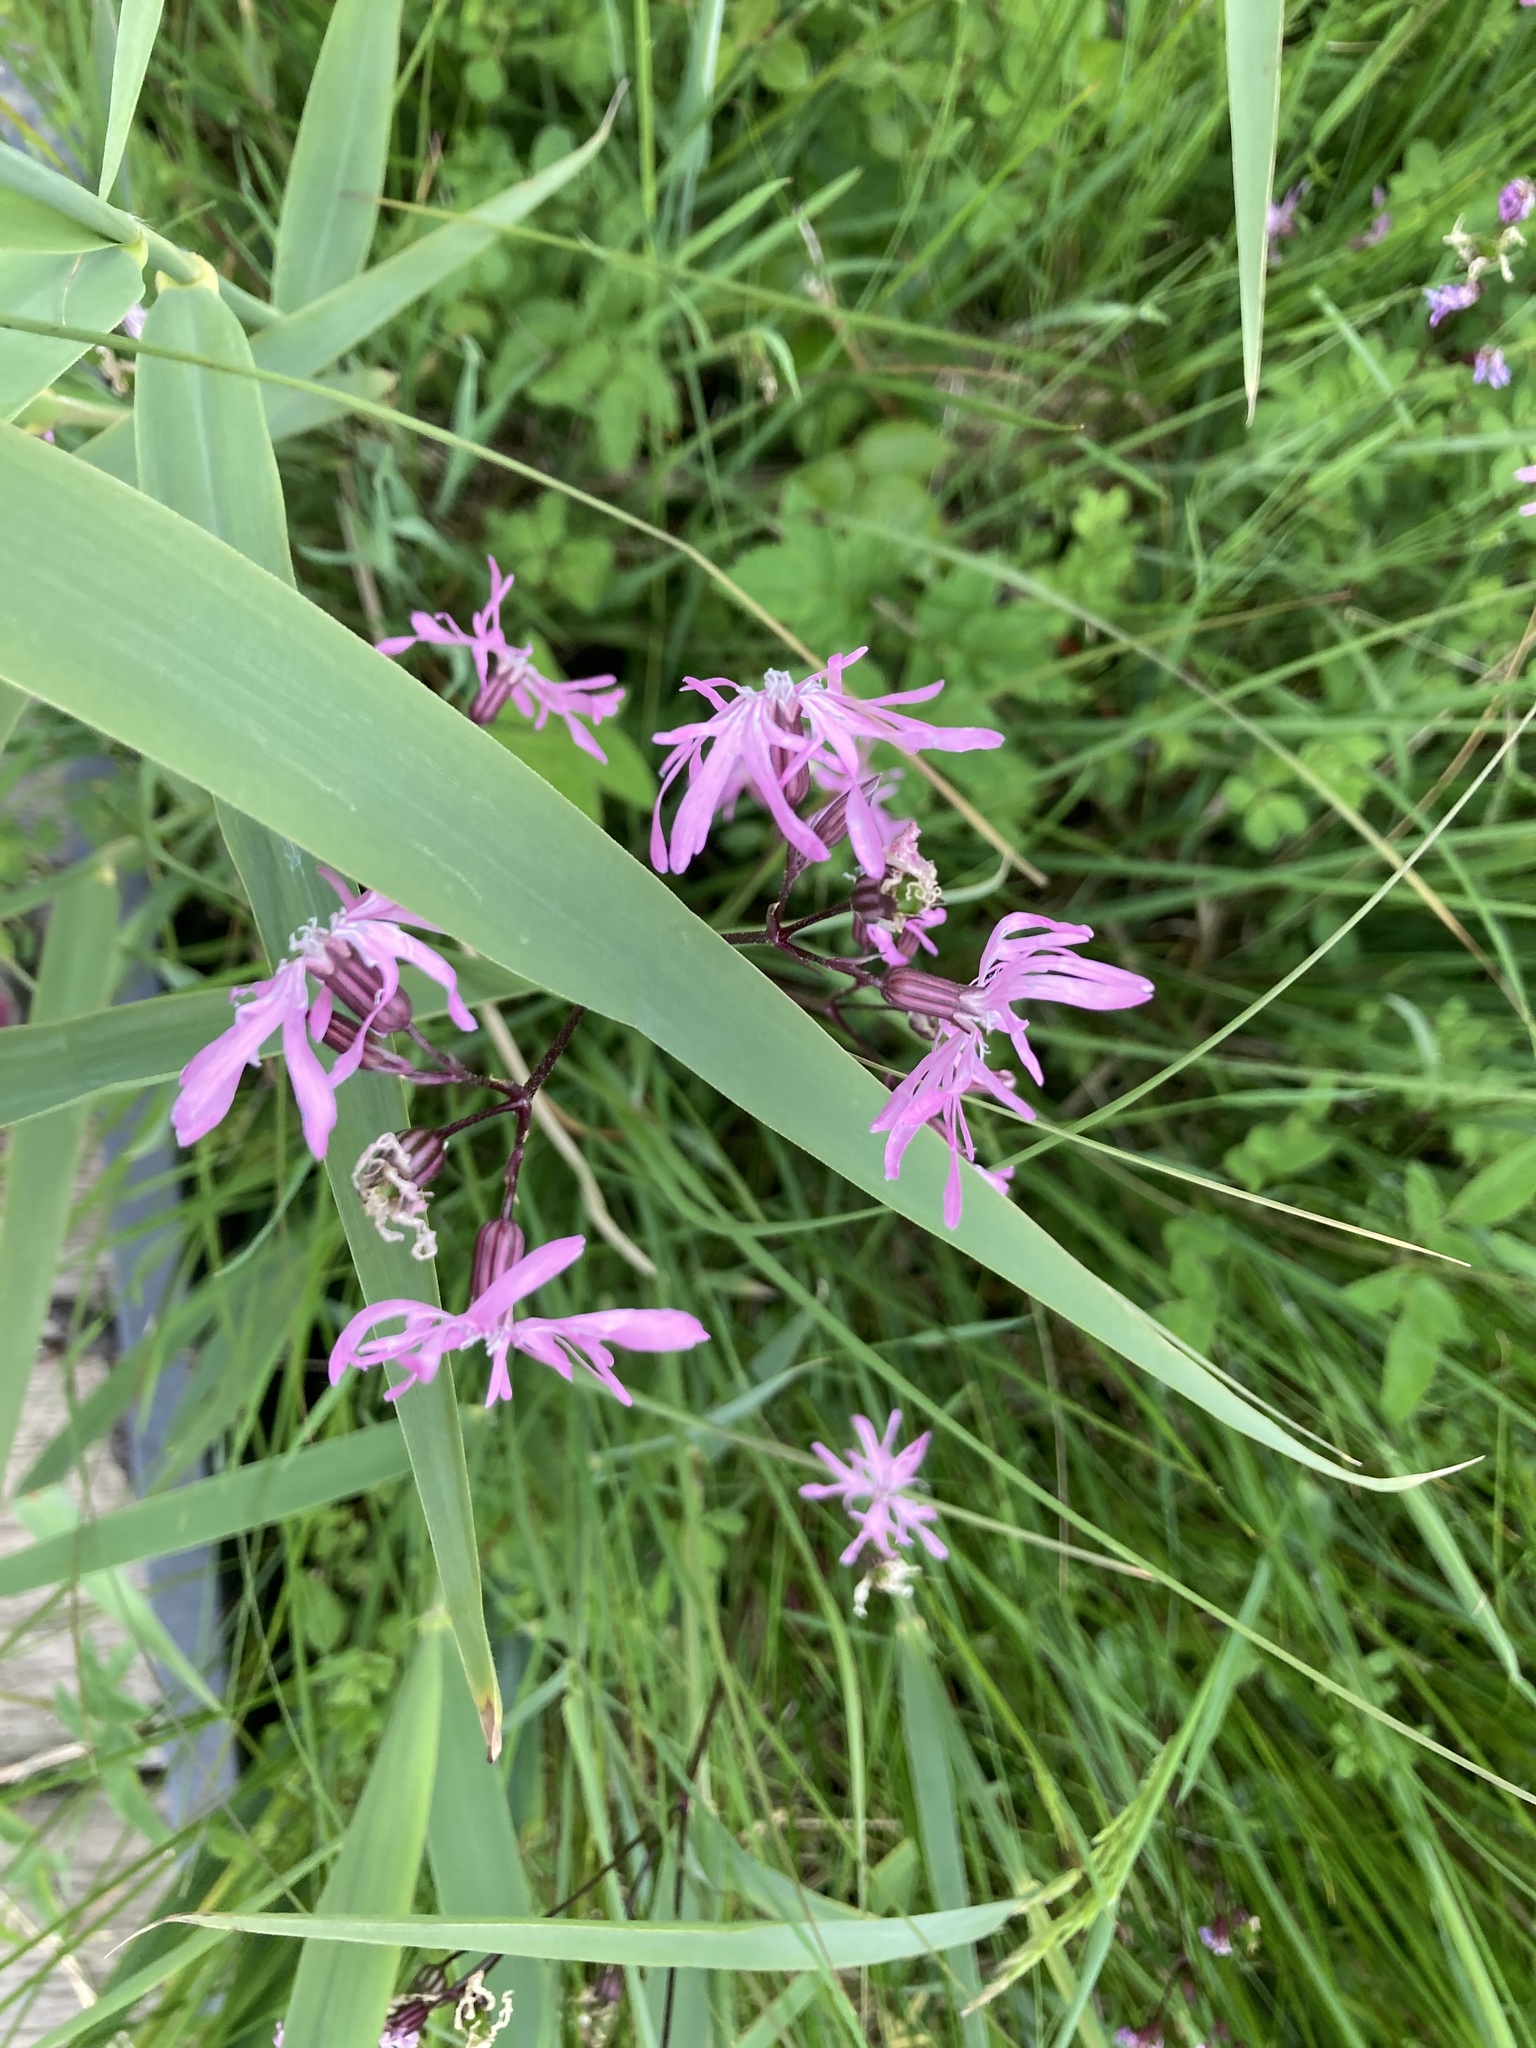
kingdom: Plantae
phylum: Tracheophyta
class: Magnoliopsida
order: Caryophyllales
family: Caryophyllaceae
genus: Silene
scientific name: Silene flos-cuculi
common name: Ragged-robin
